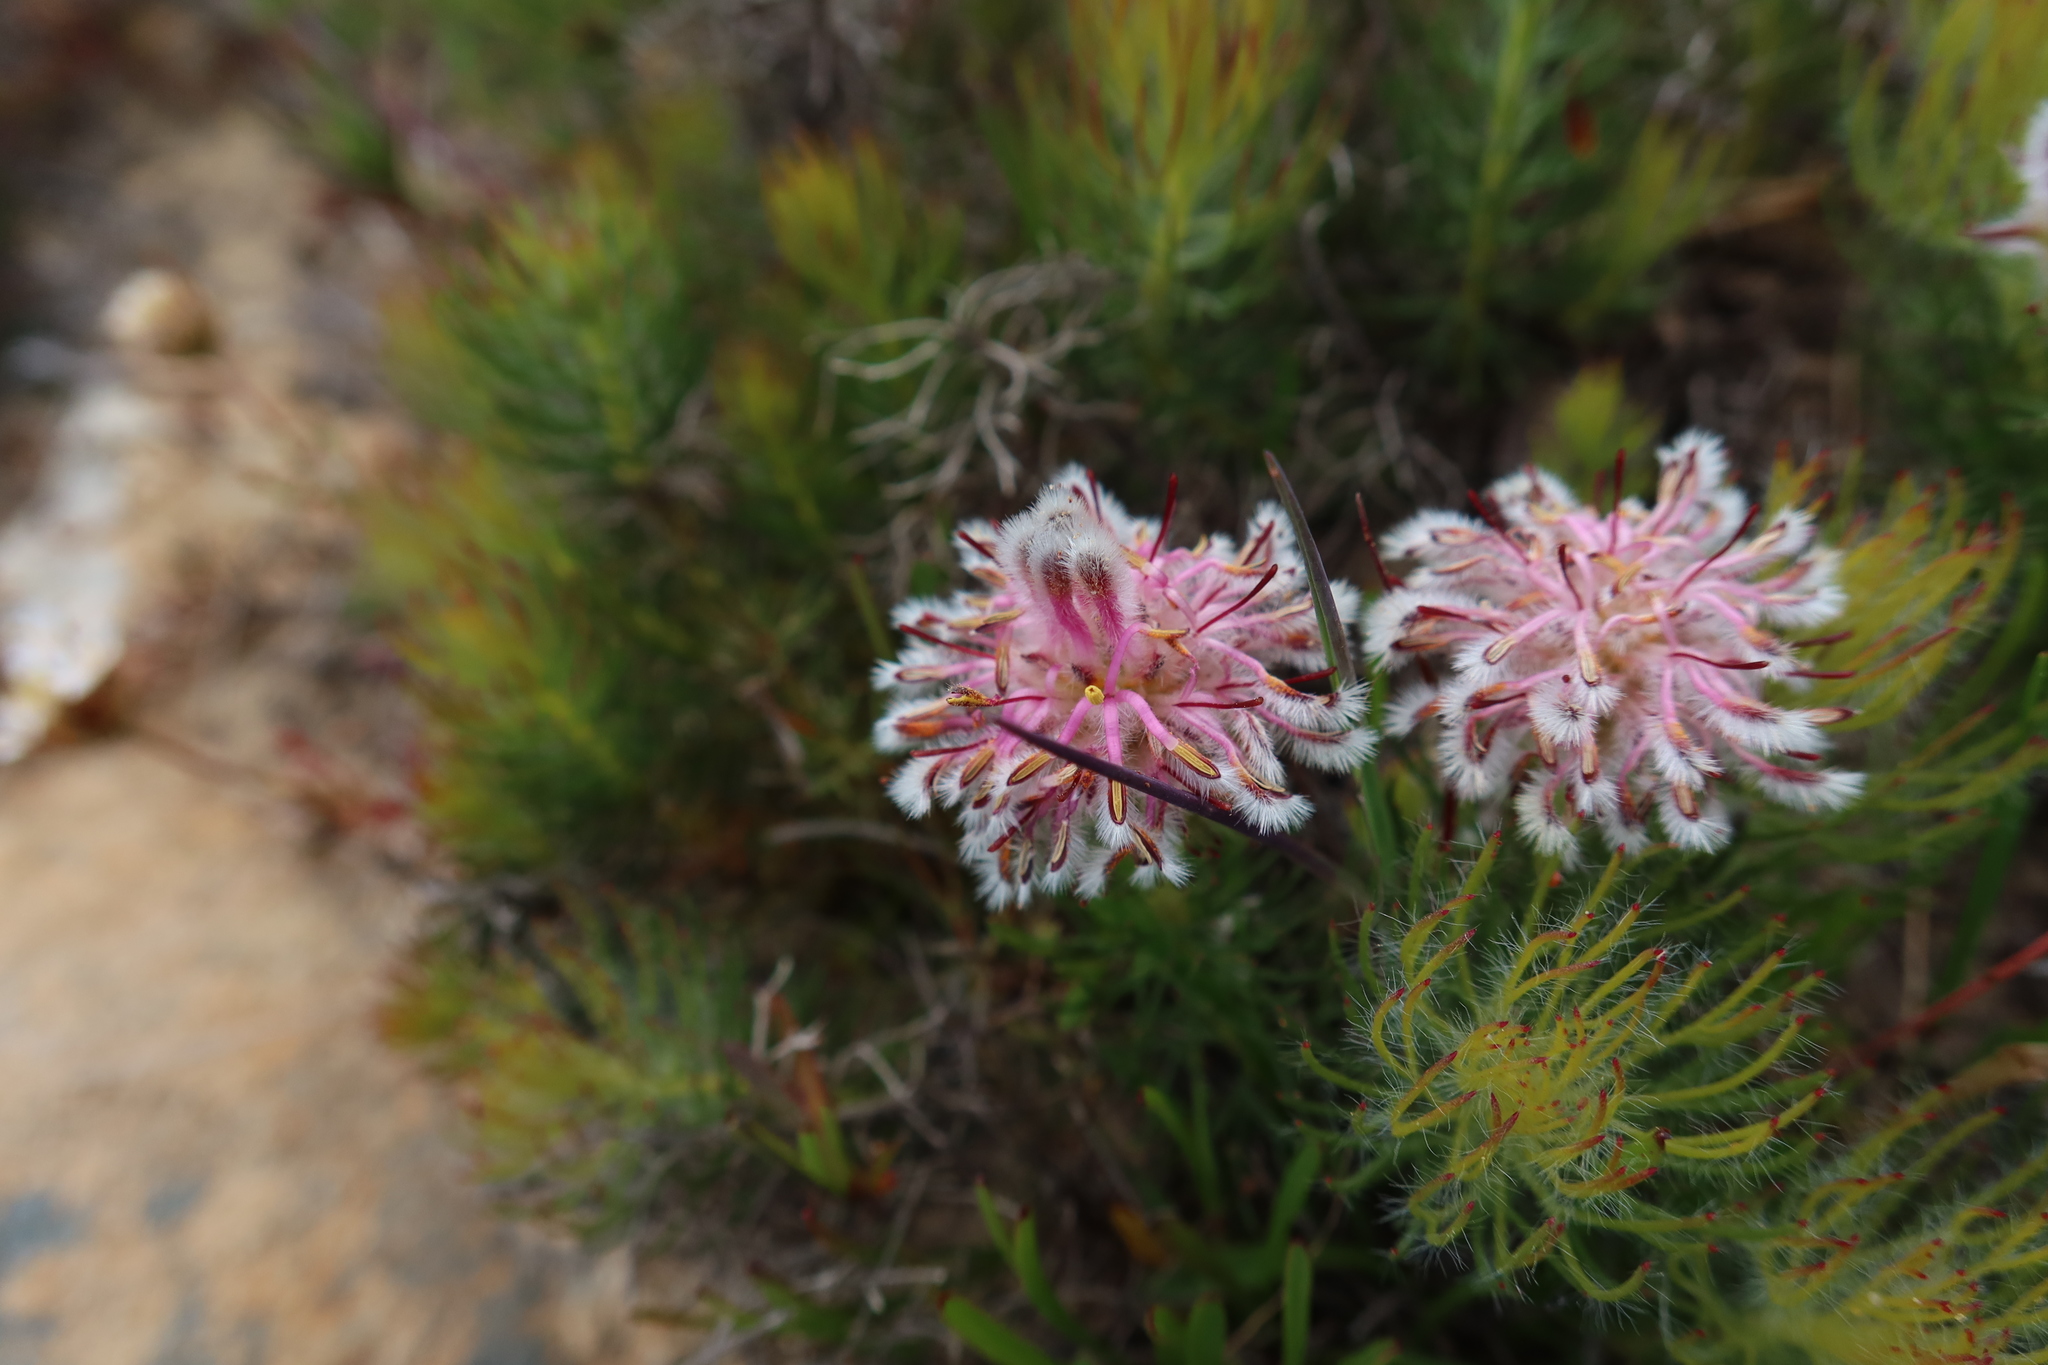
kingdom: Plantae
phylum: Tracheophyta
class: Magnoliopsida
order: Proteales
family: Proteaceae
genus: Serruria
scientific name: Serruria cyanoides
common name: Wynberg spiderhead
